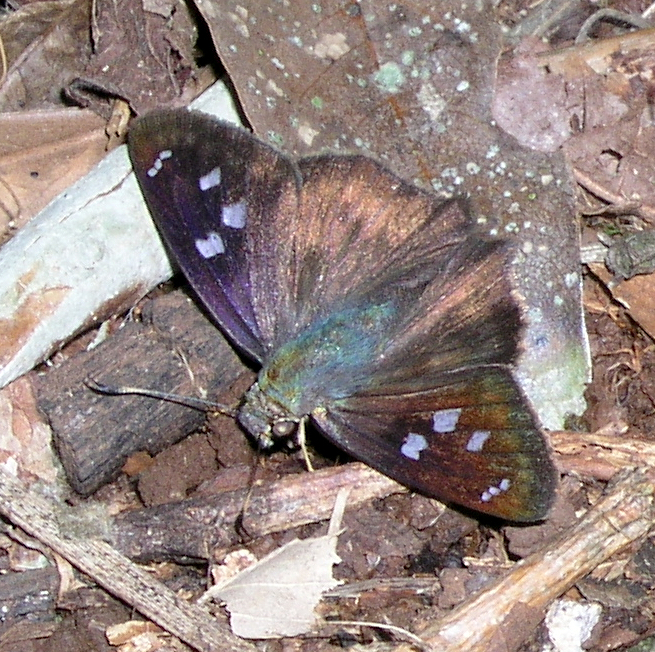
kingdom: Animalia
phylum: Arthropoda
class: Insecta
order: Lepidoptera
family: Hesperiidae
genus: Polygonus
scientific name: Polygonus leo
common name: Hammoch skipper
